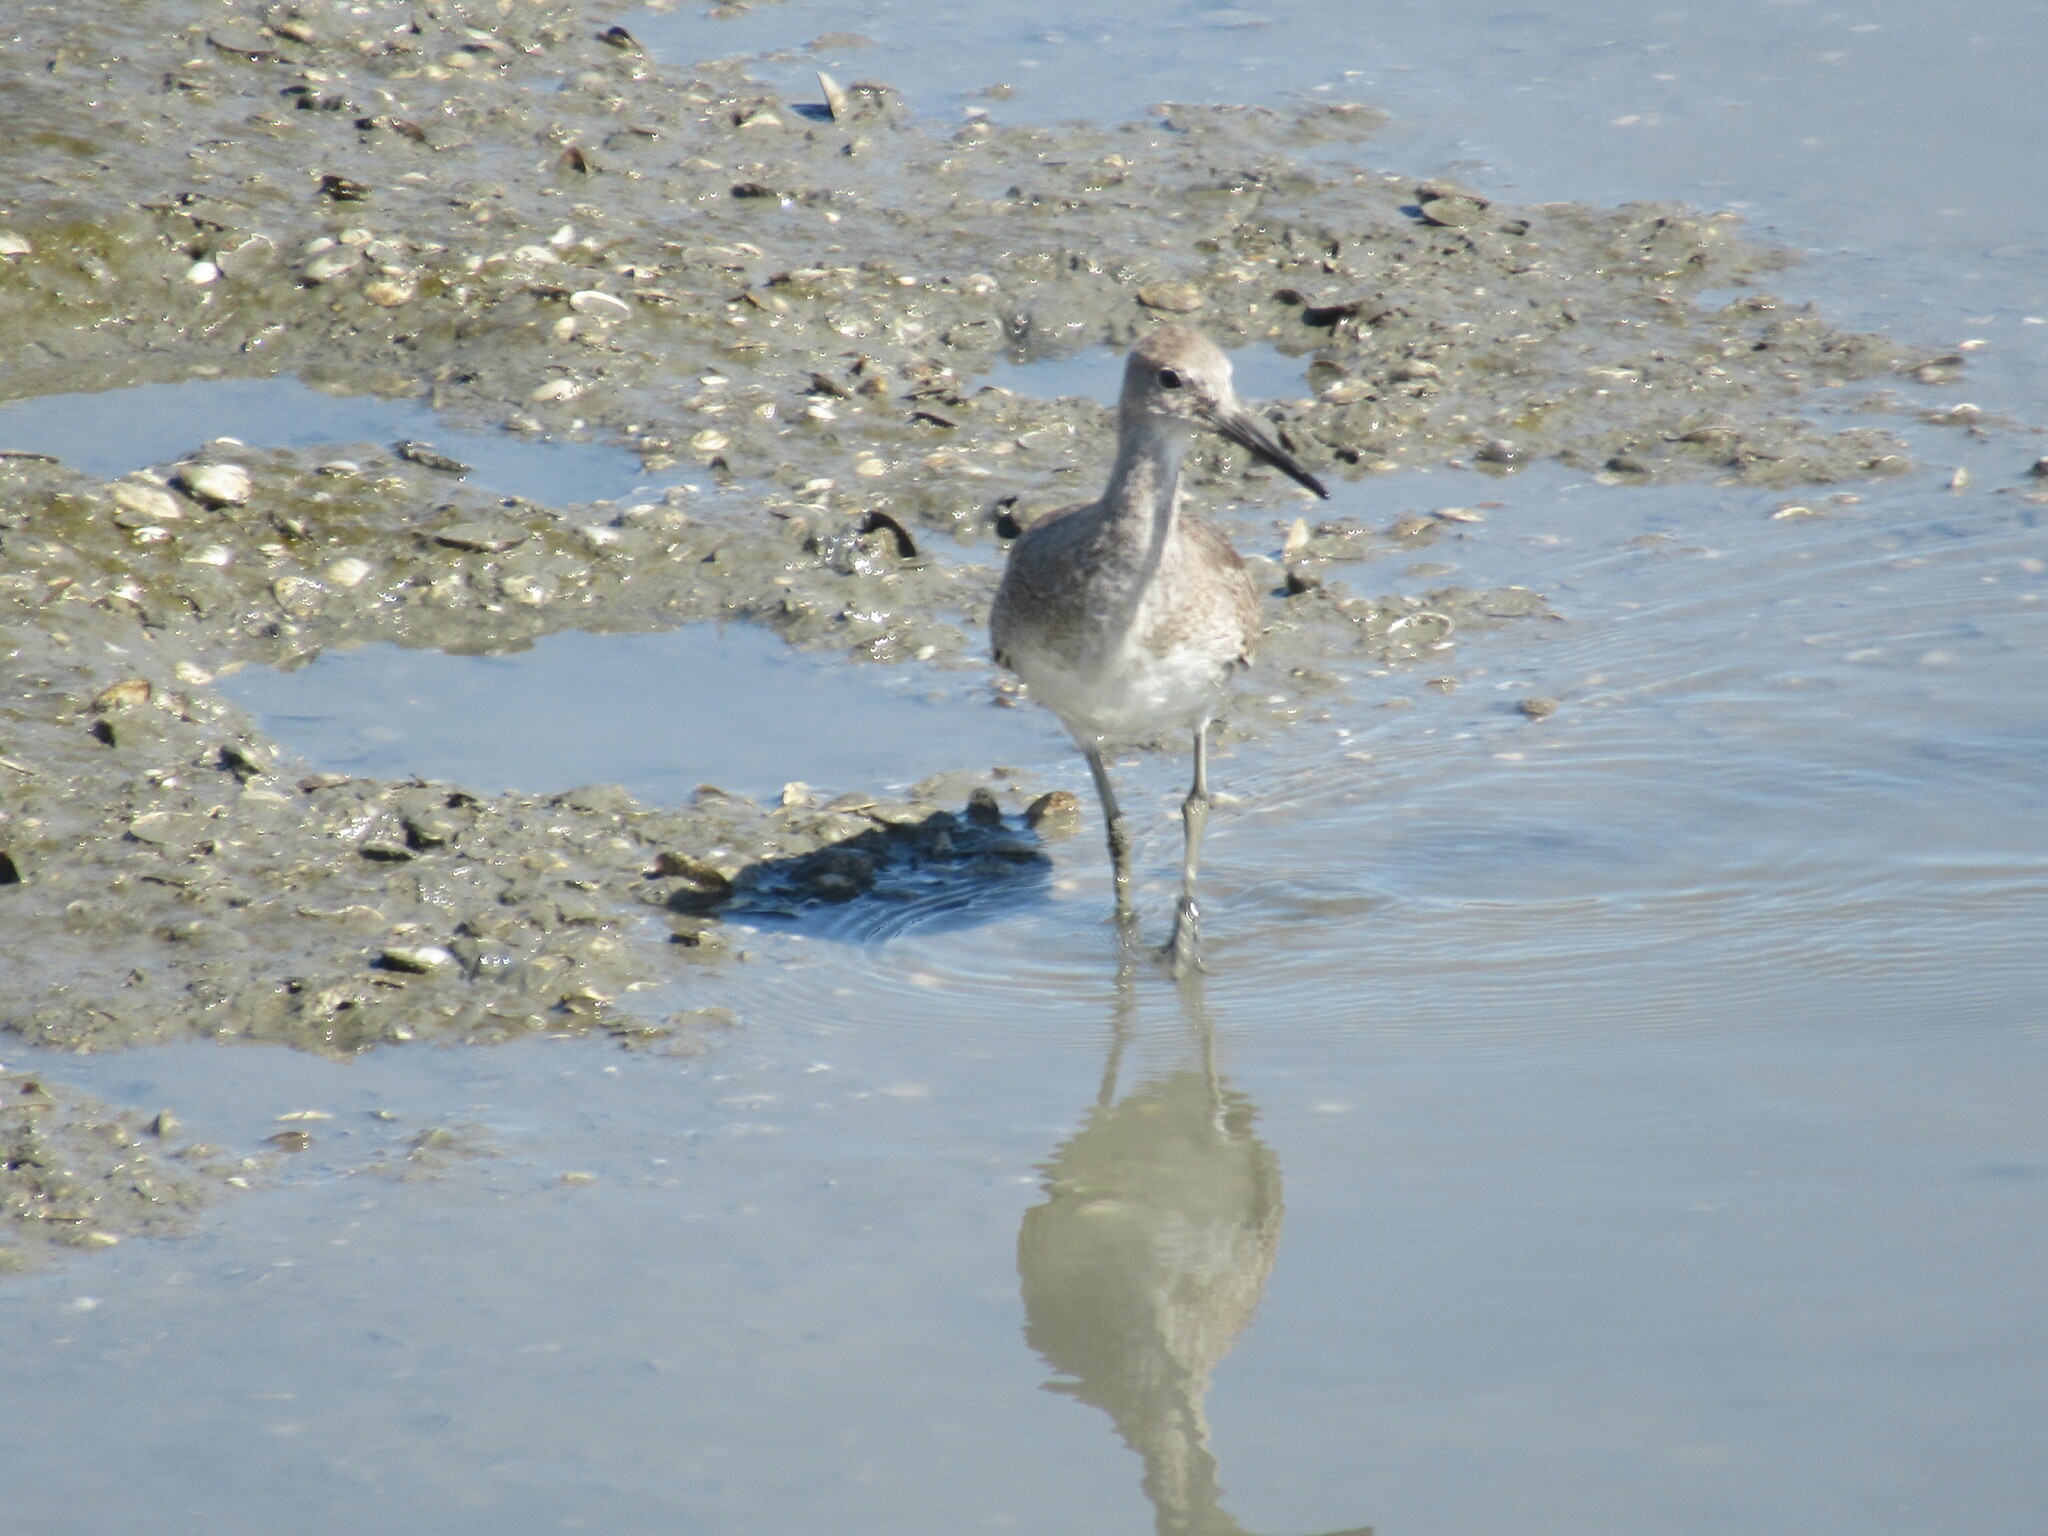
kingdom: Animalia
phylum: Chordata
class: Aves
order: Charadriiformes
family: Scolopacidae
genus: Tringa
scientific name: Tringa semipalmata
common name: Willet
